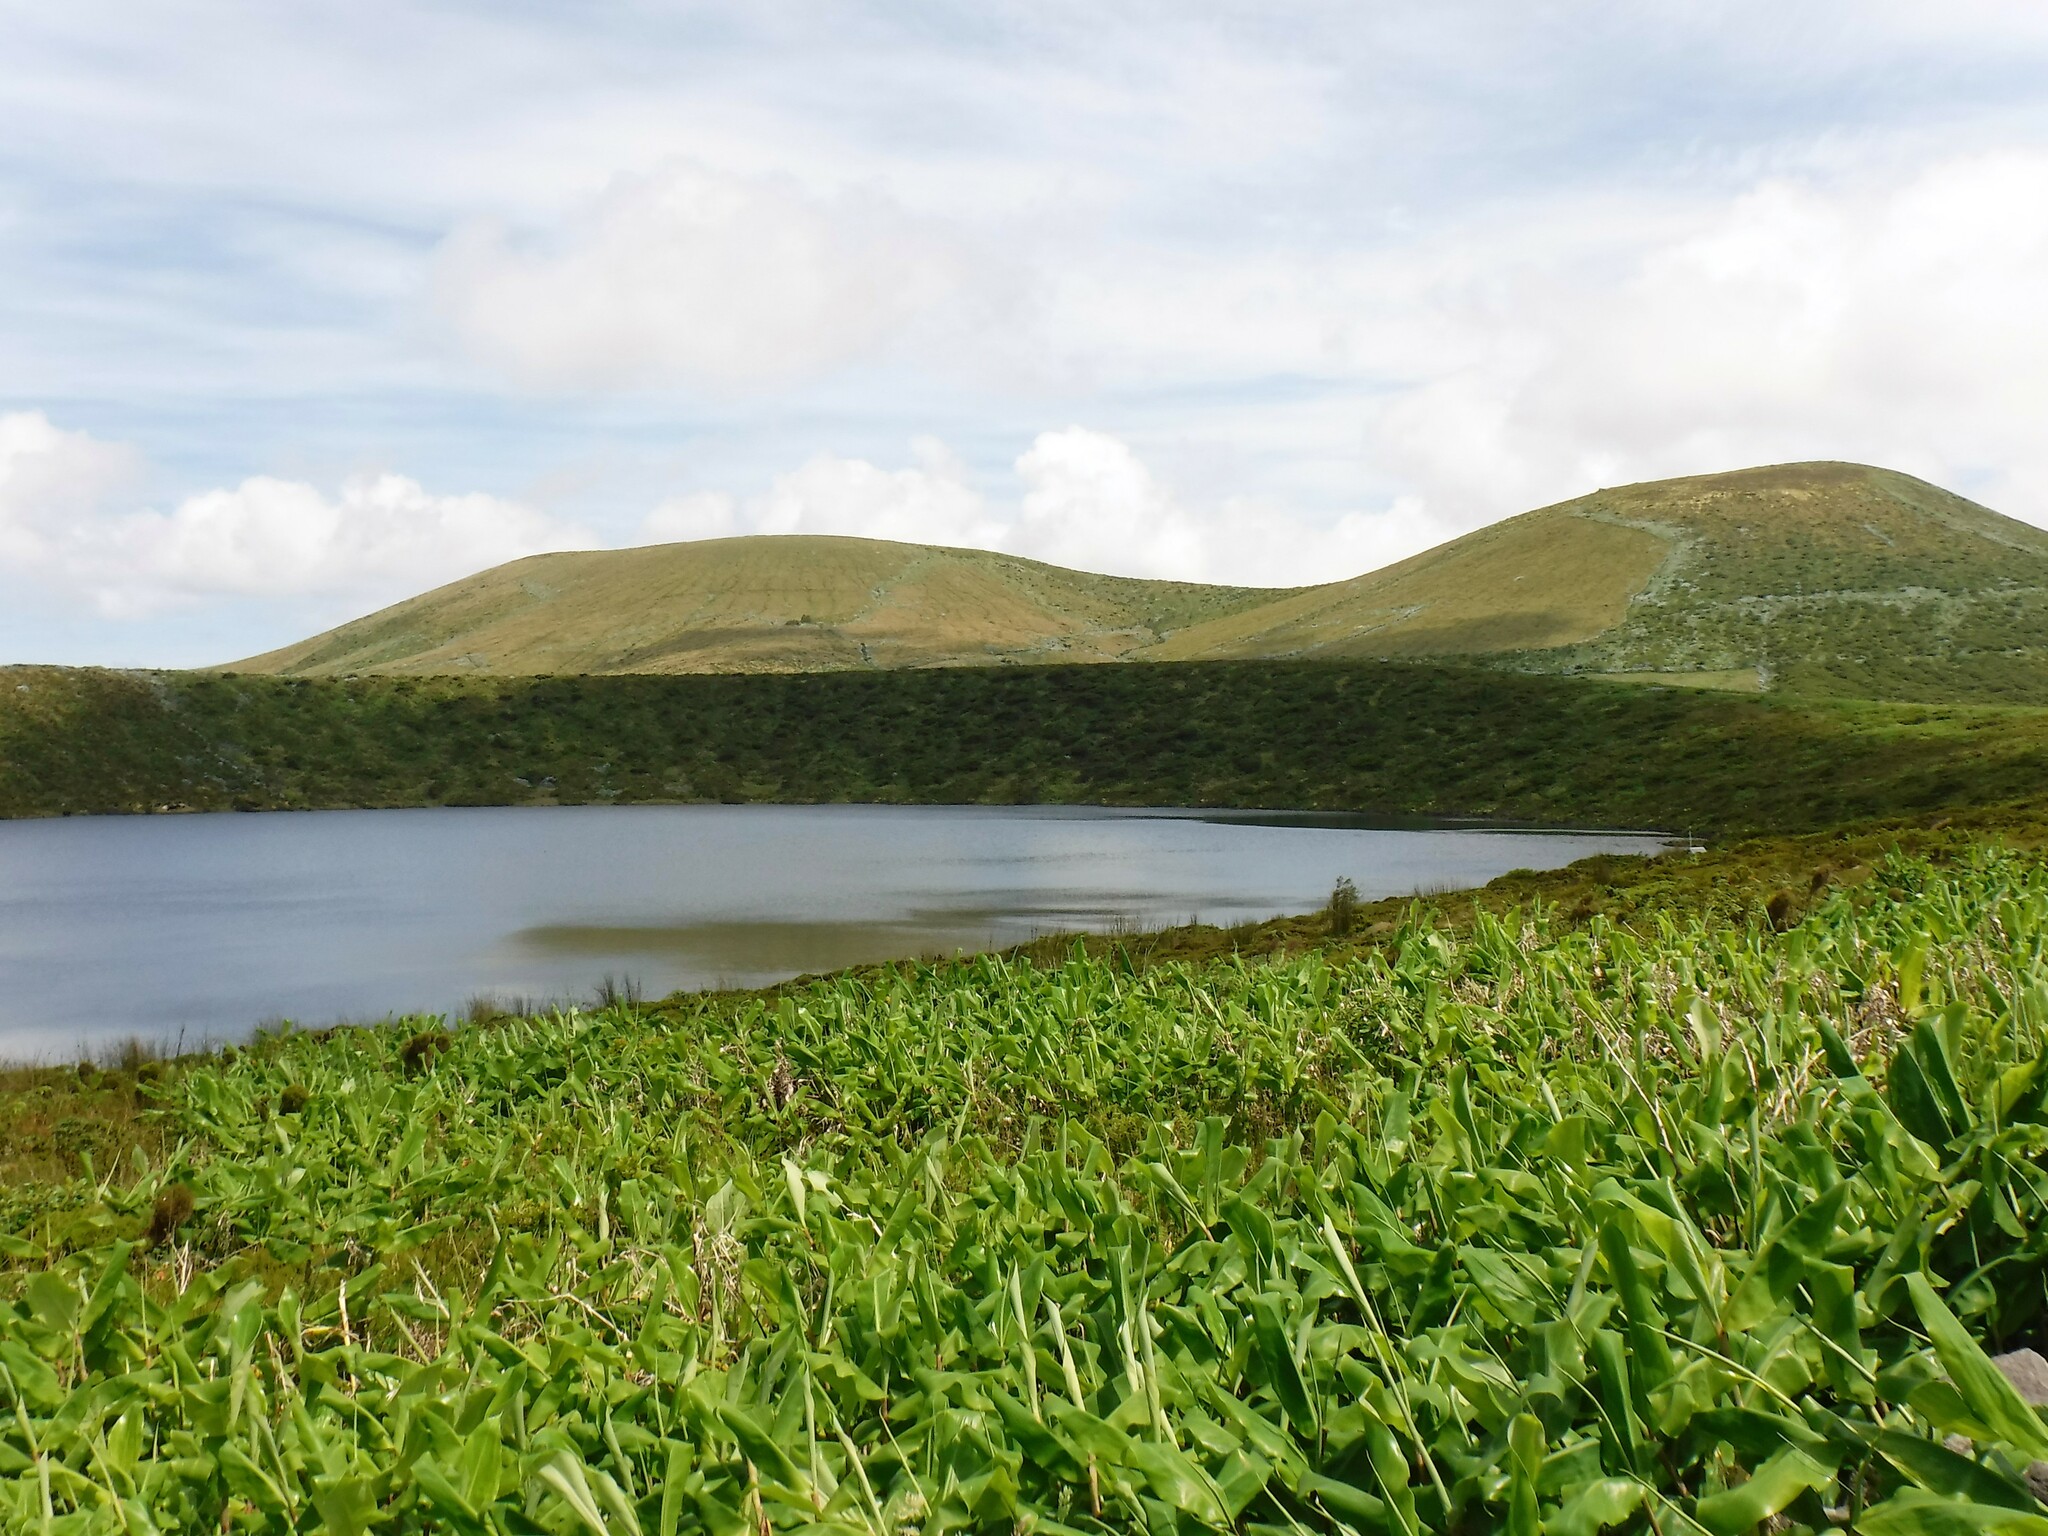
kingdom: Plantae
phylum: Tracheophyta
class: Liliopsida
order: Zingiberales
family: Zingiberaceae
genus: Hedychium
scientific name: Hedychium gardnerianum
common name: Himalayan ginger
